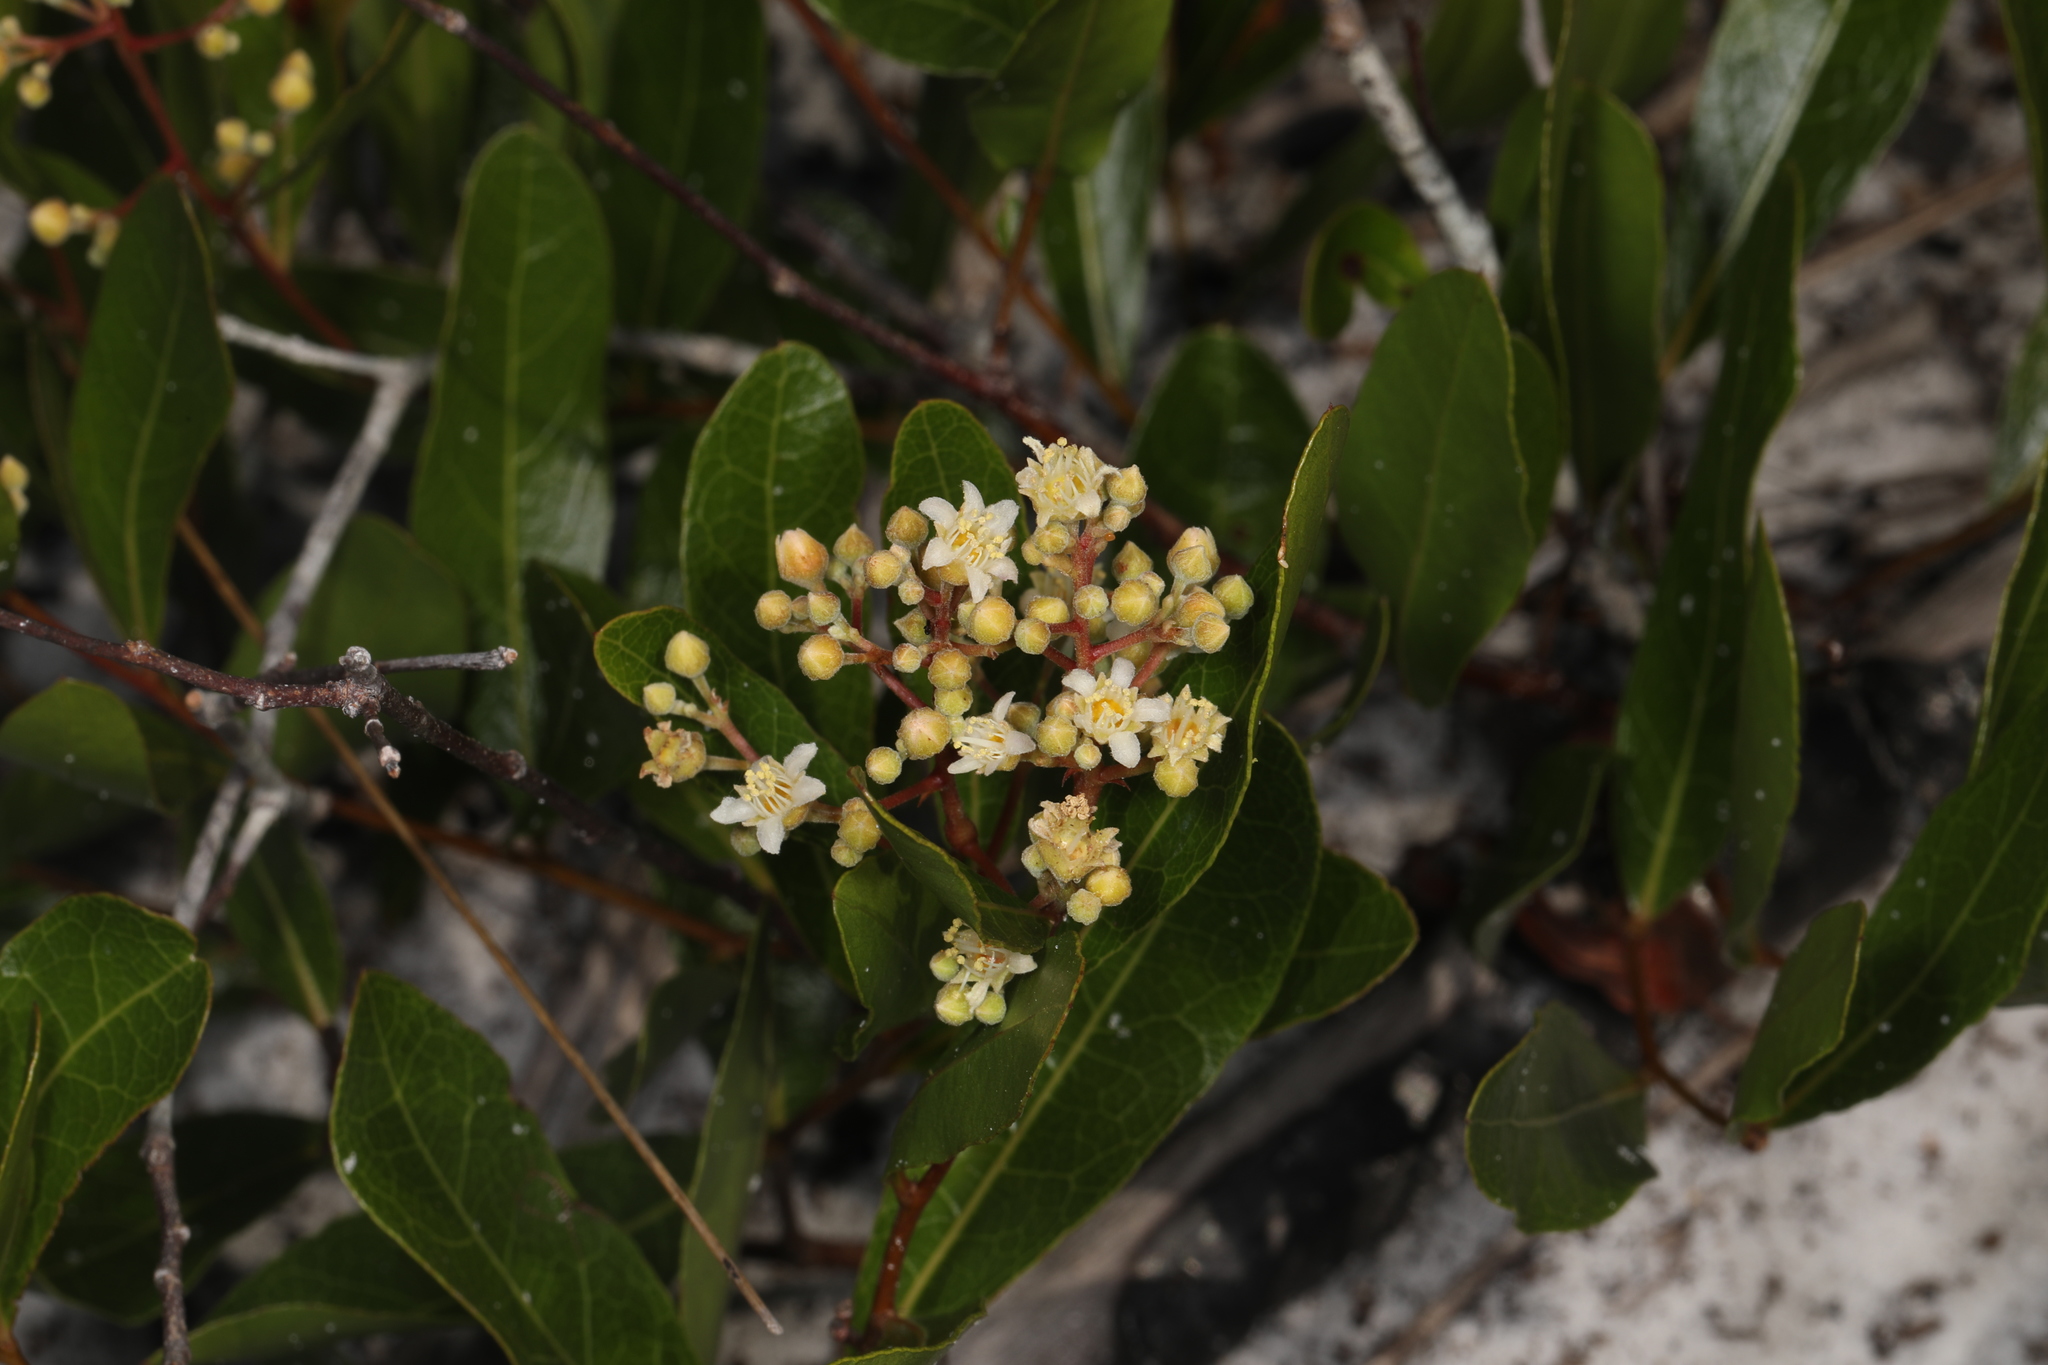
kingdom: Plantae
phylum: Tracheophyta
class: Magnoliopsida
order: Malpighiales
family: Chrysobalanaceae
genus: Geobalanus
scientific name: Geobalanus oblongifolius
